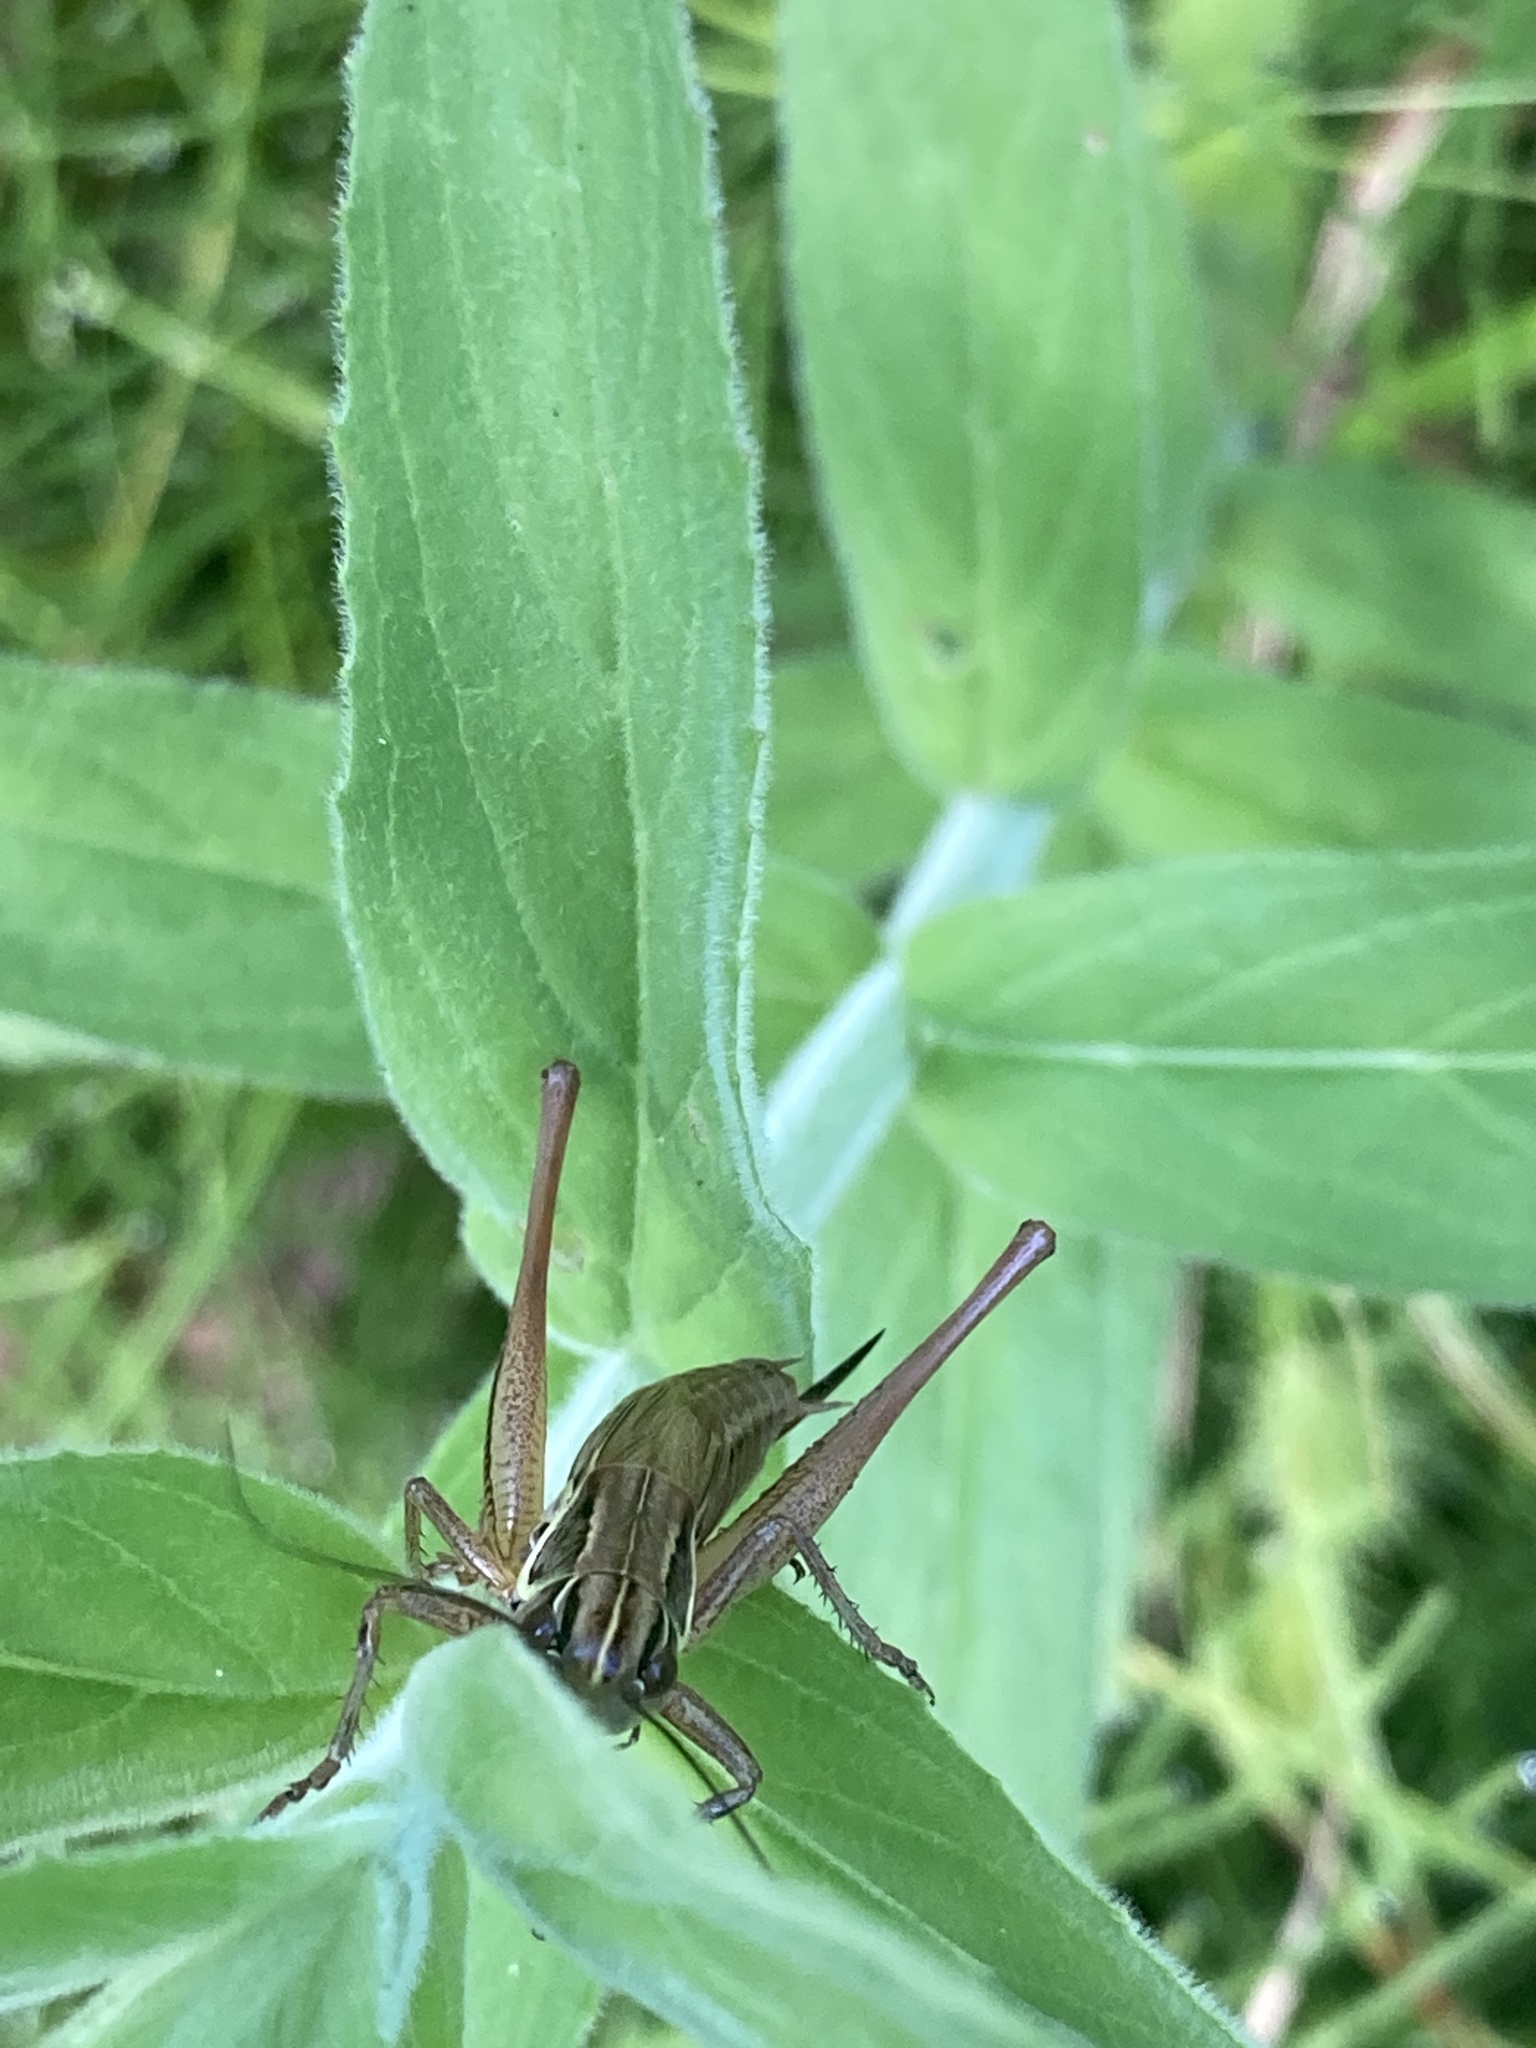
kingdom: Animalia
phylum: Arthropoda
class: Insecta
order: Orthoptera
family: Tettigoniidae
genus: Roeseliana
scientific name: Roeseliana roeselii
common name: Roesel's bush cricket
